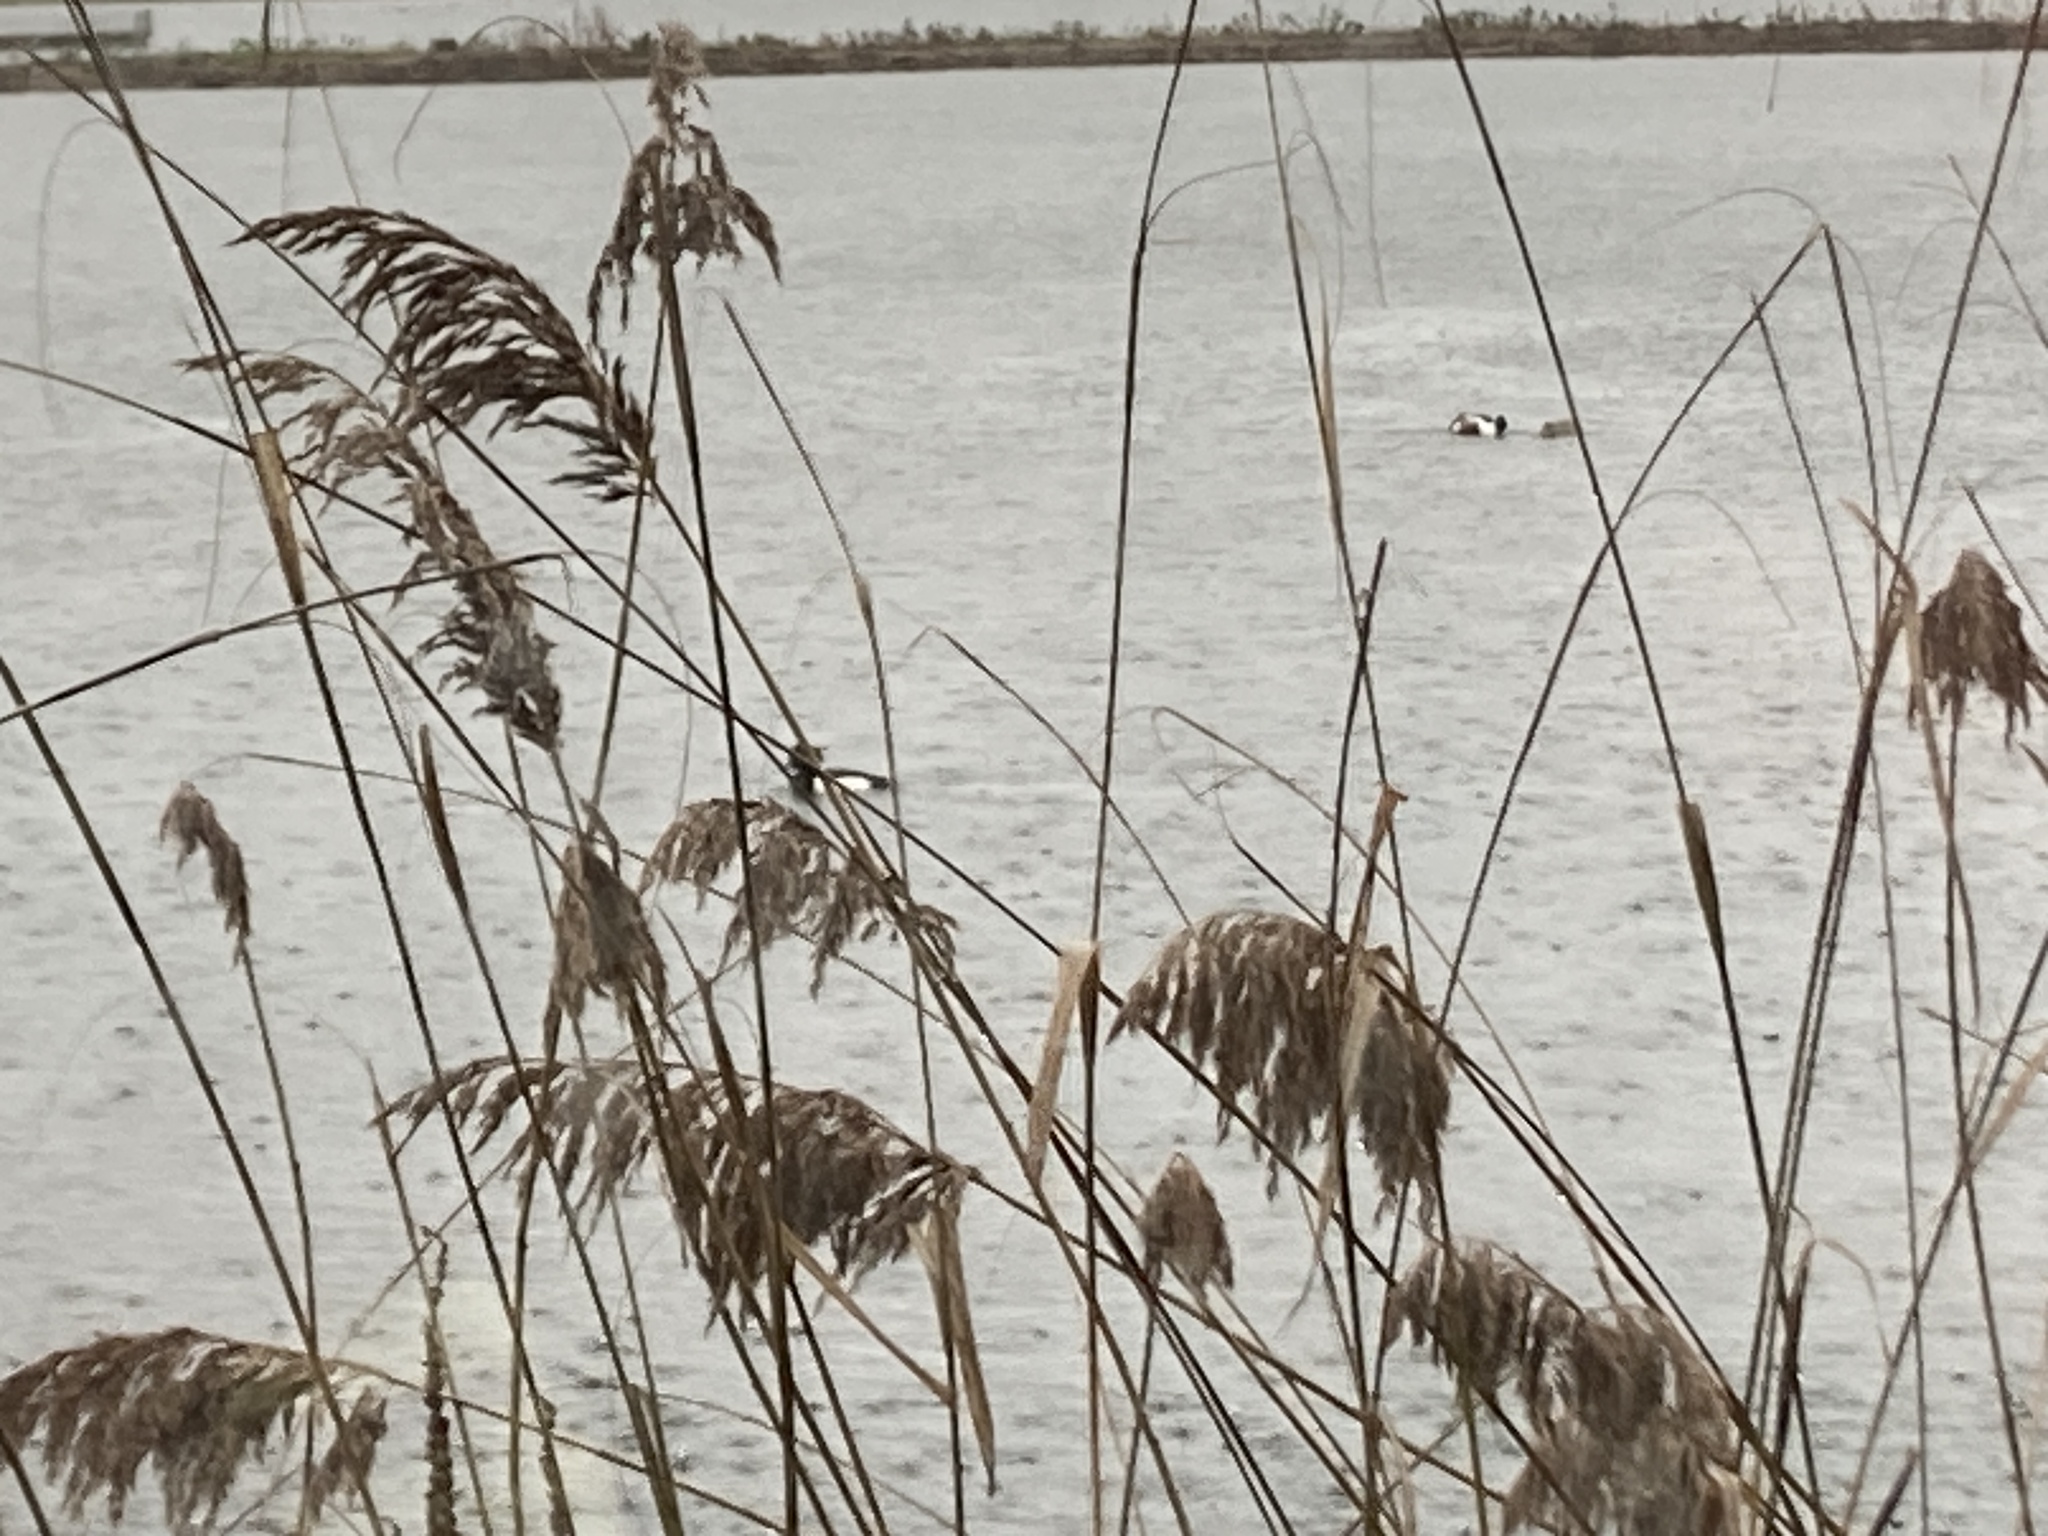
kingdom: Animalia
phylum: Chordata
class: Aves
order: Anseriformes
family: Anatidae
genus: Aythya
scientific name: Aythya fuligula
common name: Tufted duck
